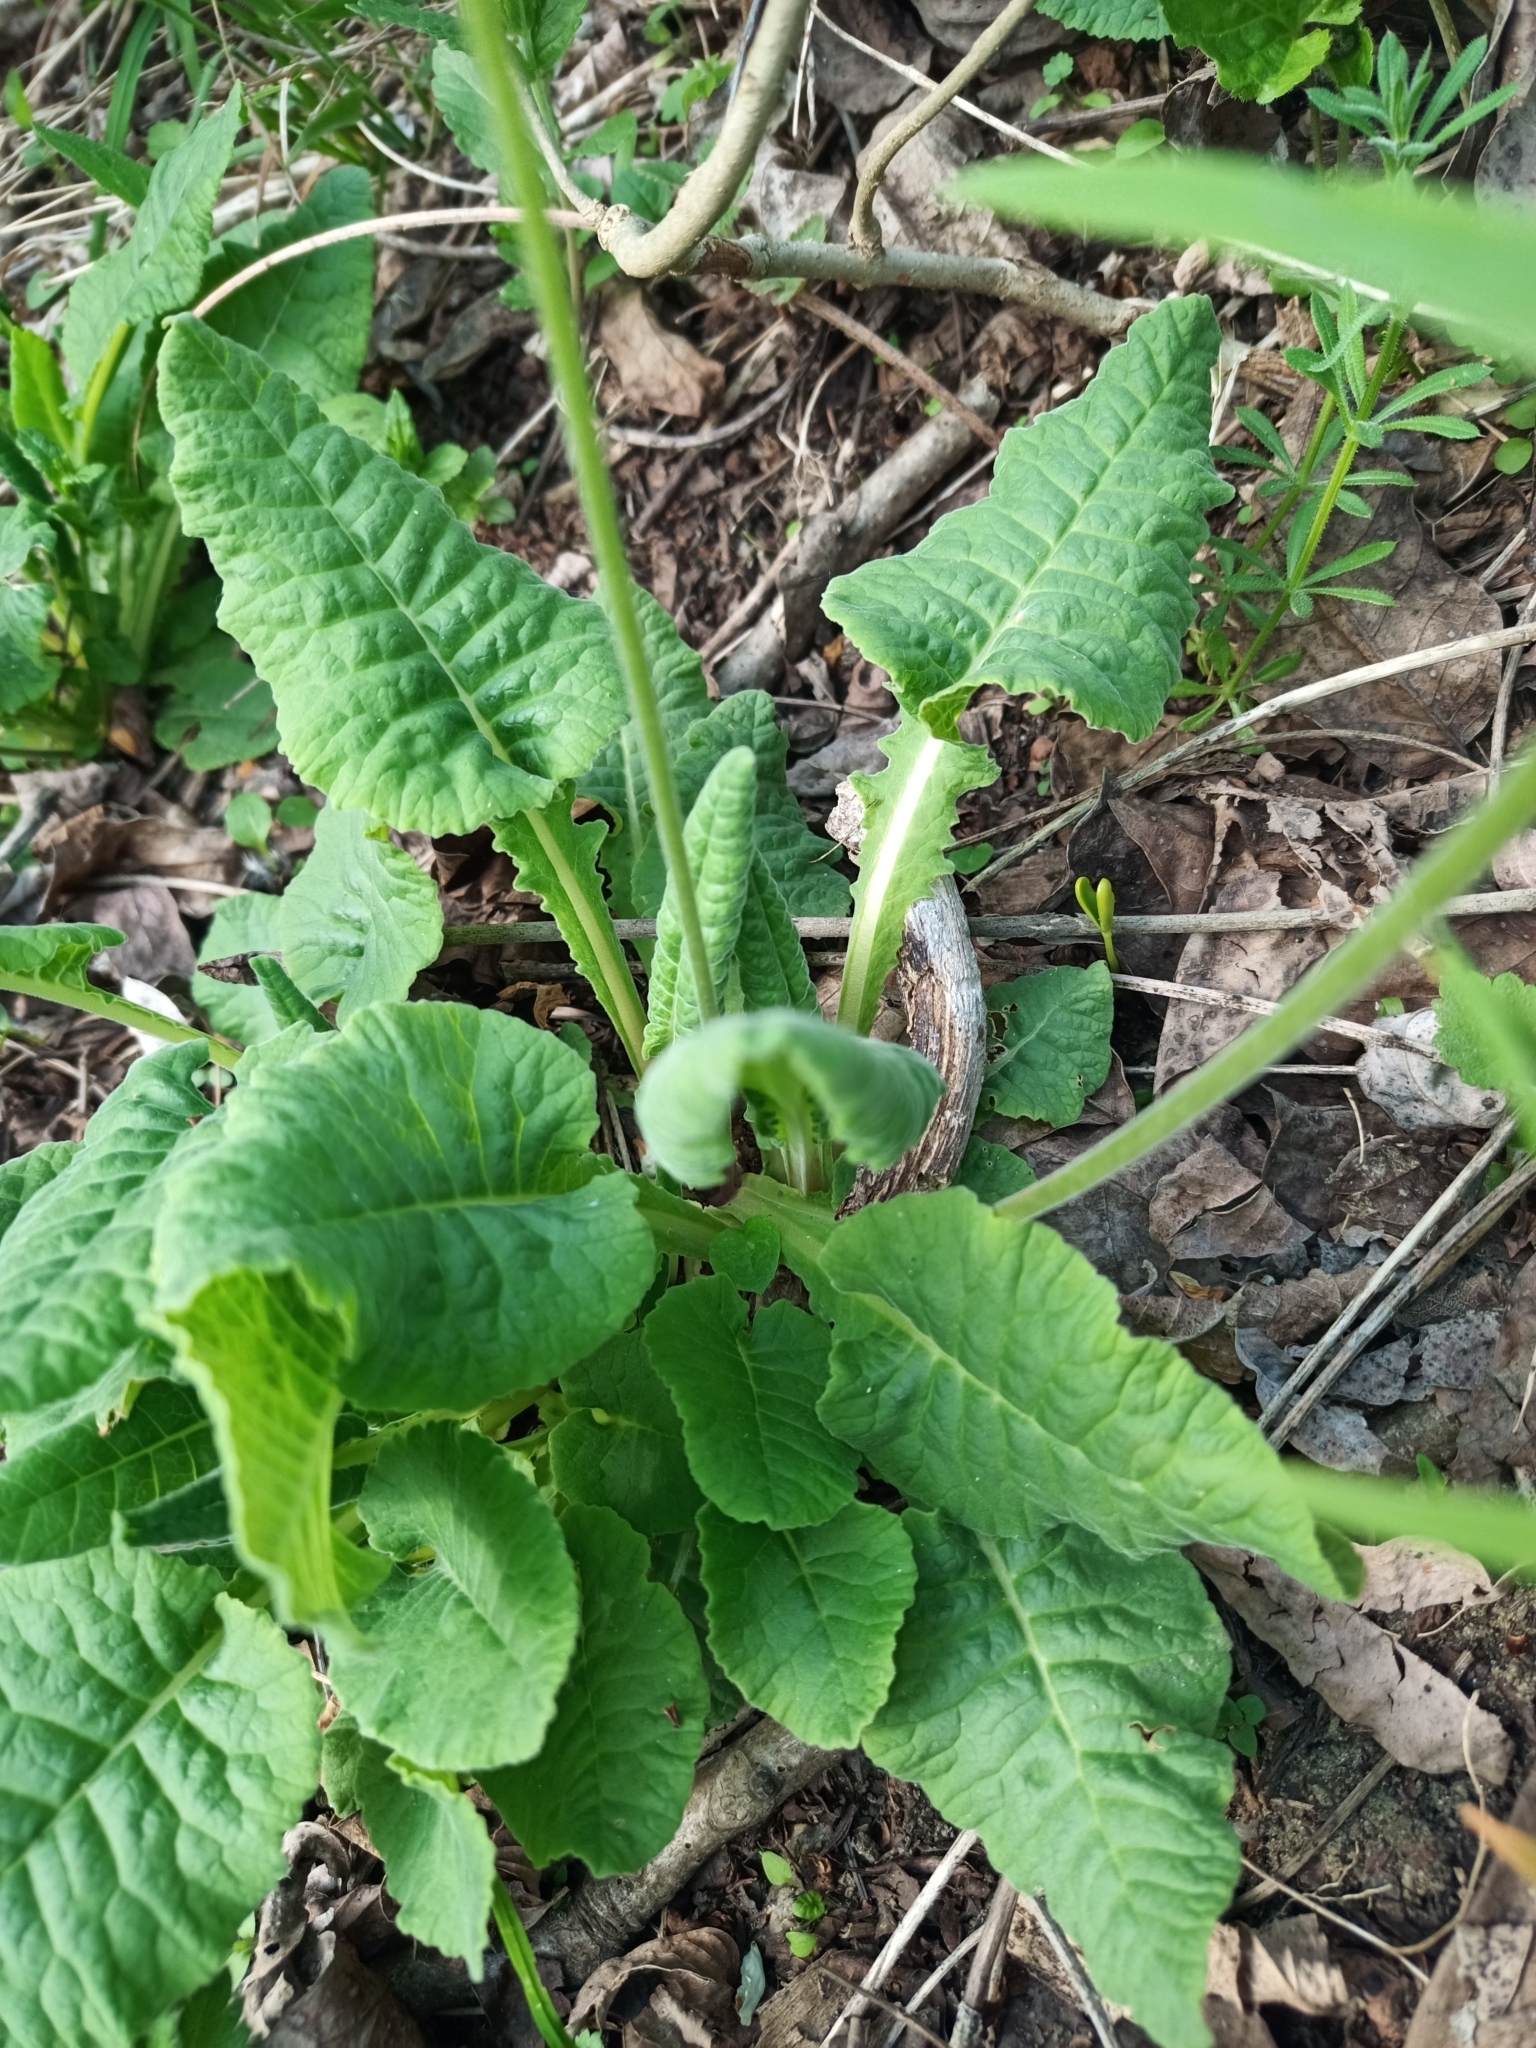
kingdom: Plantae
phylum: Tracheophyta
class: Magnoliopsida
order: Ericales
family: Primulaceae
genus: Primula
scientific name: Primula veris
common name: Cowslip
